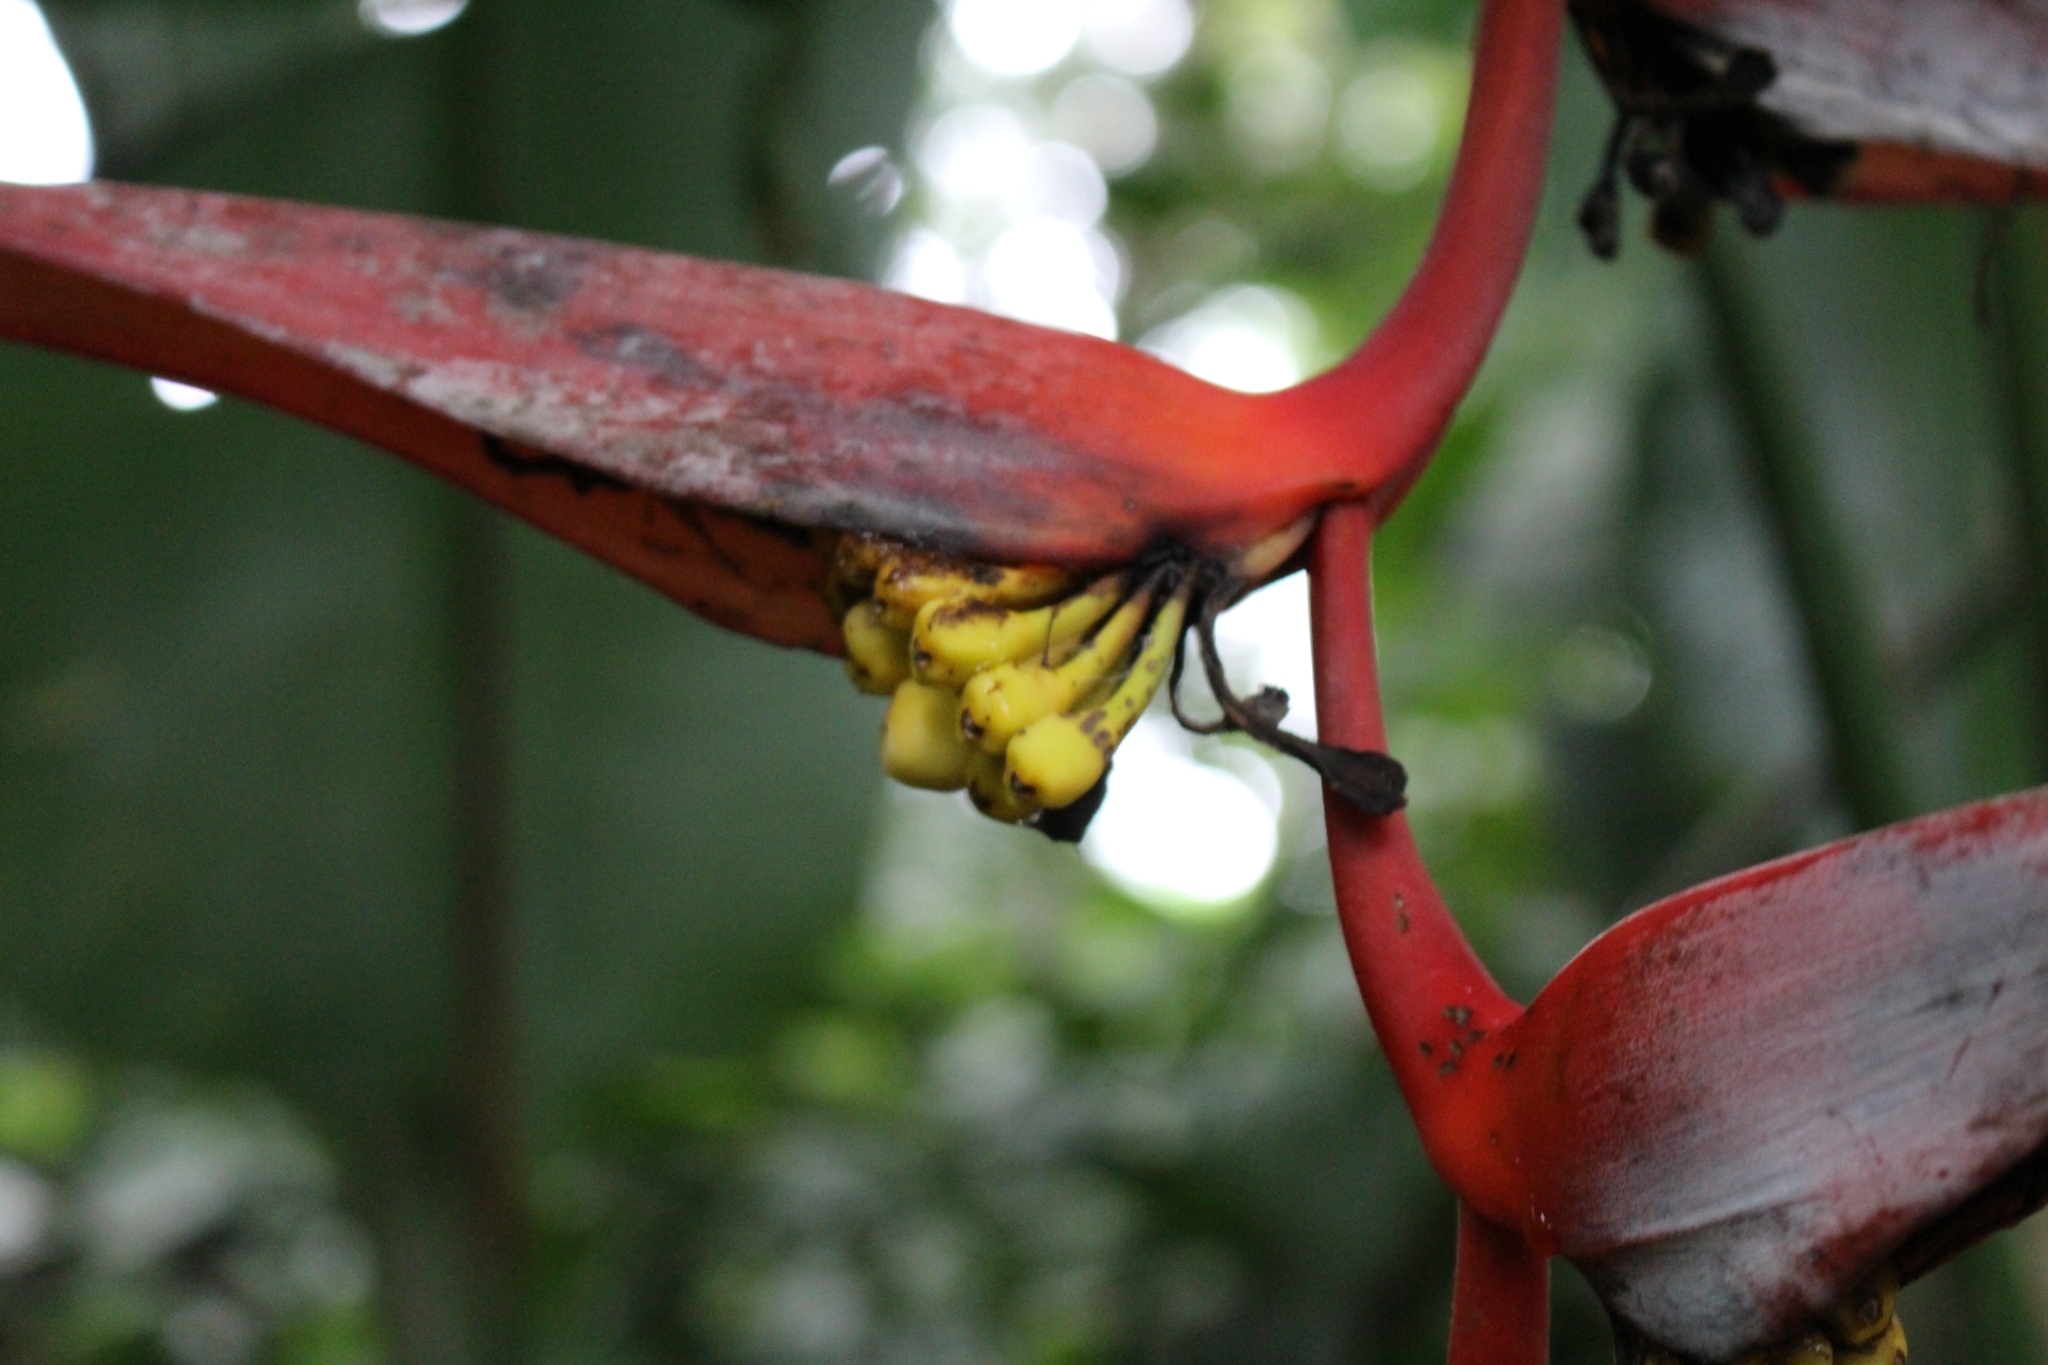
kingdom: Plantae
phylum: Tracheophyta
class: Liliopsida
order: Zingiberales
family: Heliconiaceae
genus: Heliconia
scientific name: Heliconia collinsiana
